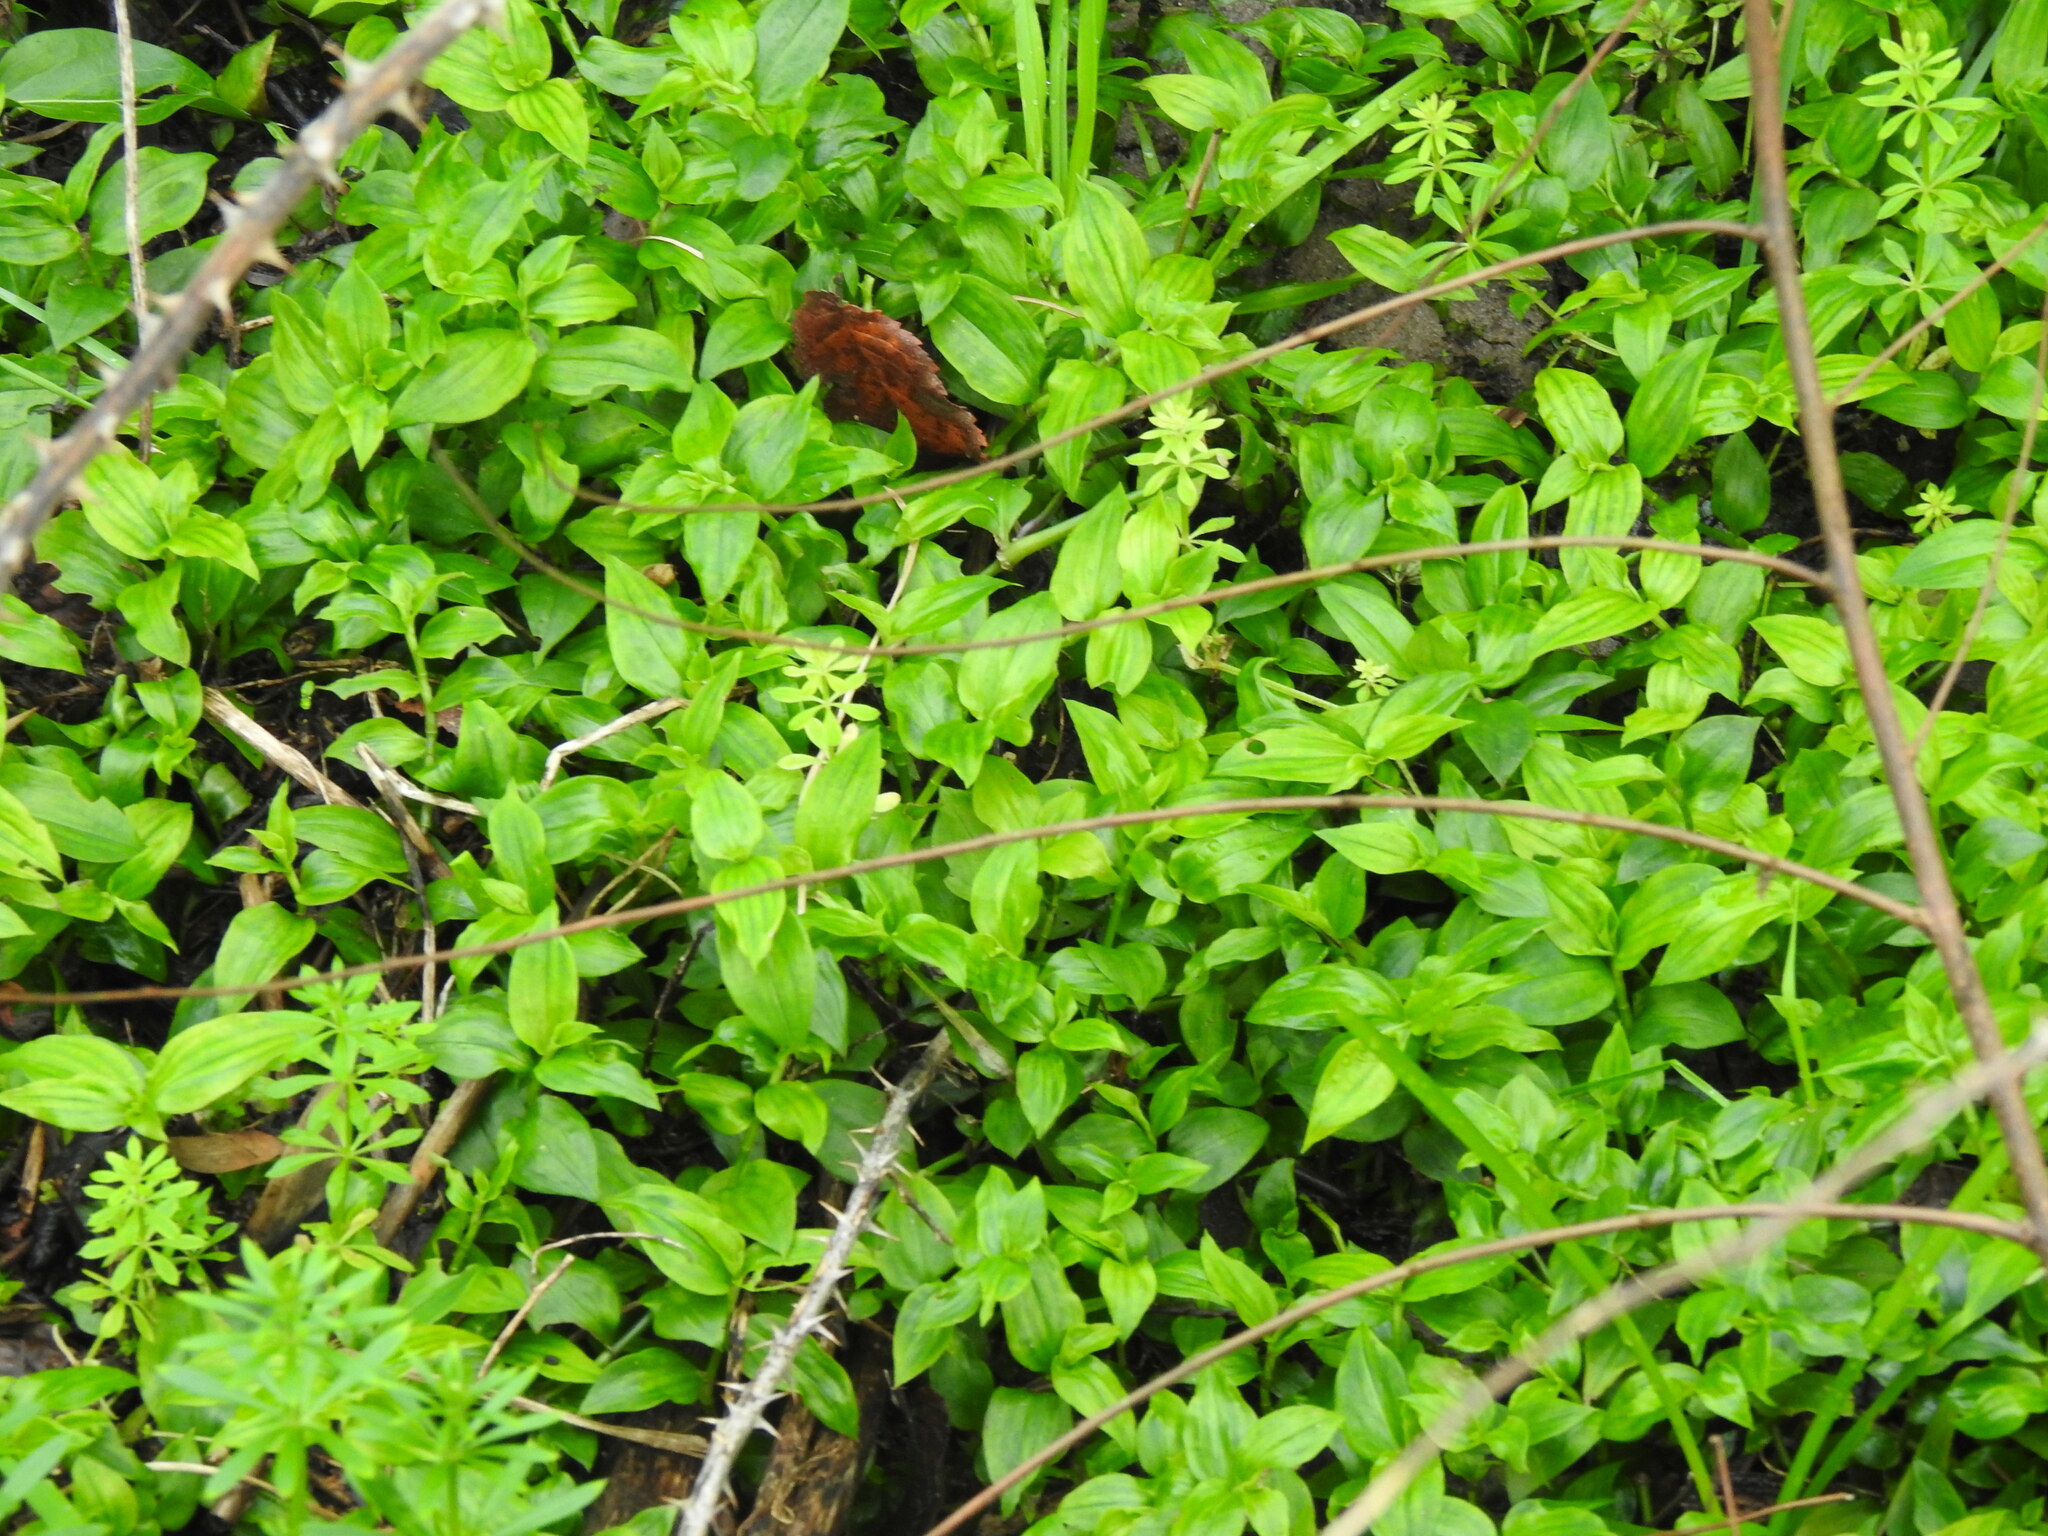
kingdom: Plantae
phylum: Tracheophyta
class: Liliopsida
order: Commelinales
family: Commelinaceae
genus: Tradescantia
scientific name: Tradescantia fluminensis
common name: Wandering-jew
